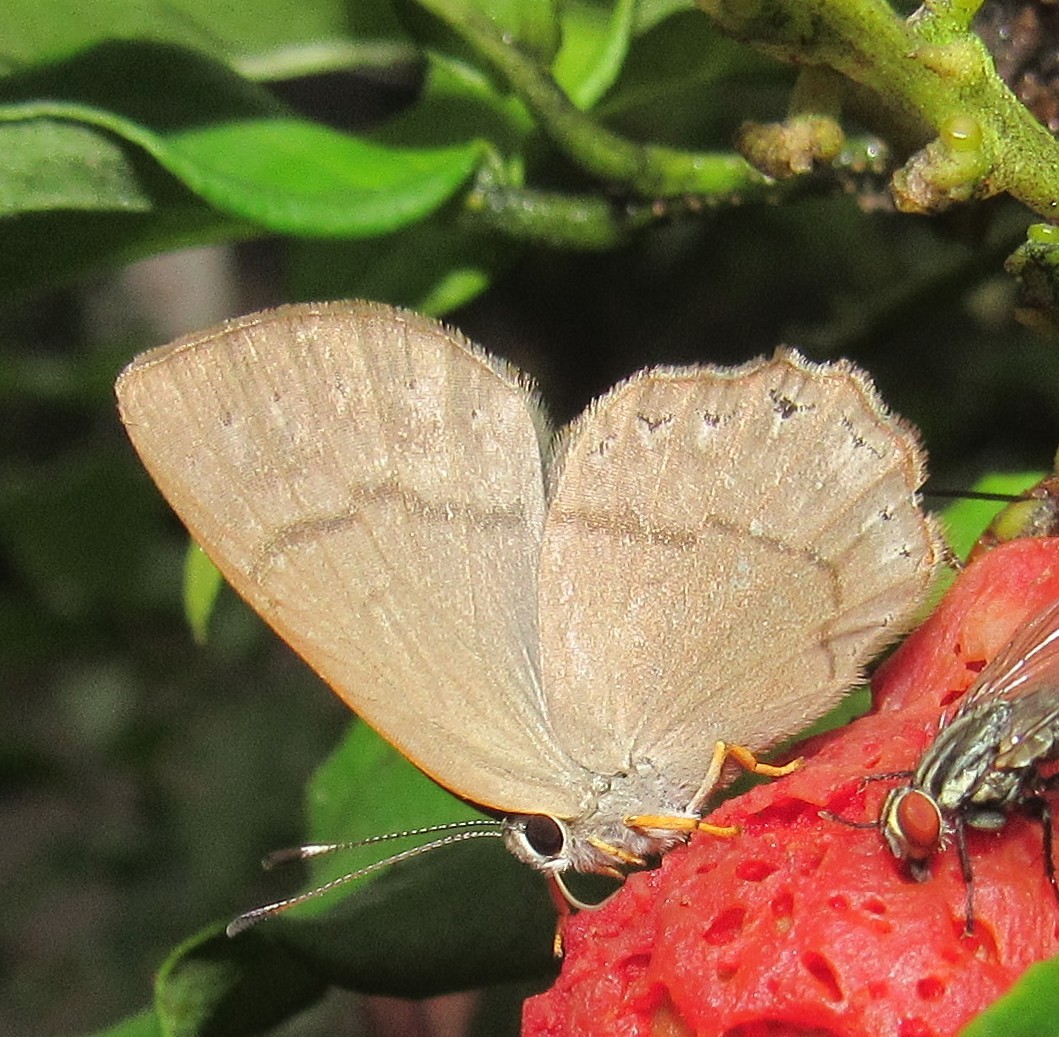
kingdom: Animalia
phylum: Arthropoda
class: Insecta
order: Lepidoptera
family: Lycaenidae
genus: Euselasia
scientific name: Euselasia euploea
